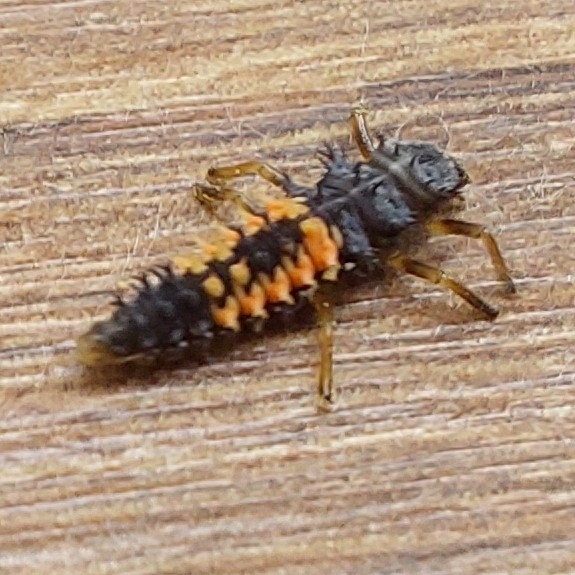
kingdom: Animalia
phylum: Arthropoda
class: Insecta
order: Coleoptera
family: Coccinellidae
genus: Harmonia
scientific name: Harmonia axyridis
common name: Harlequin ladybird
